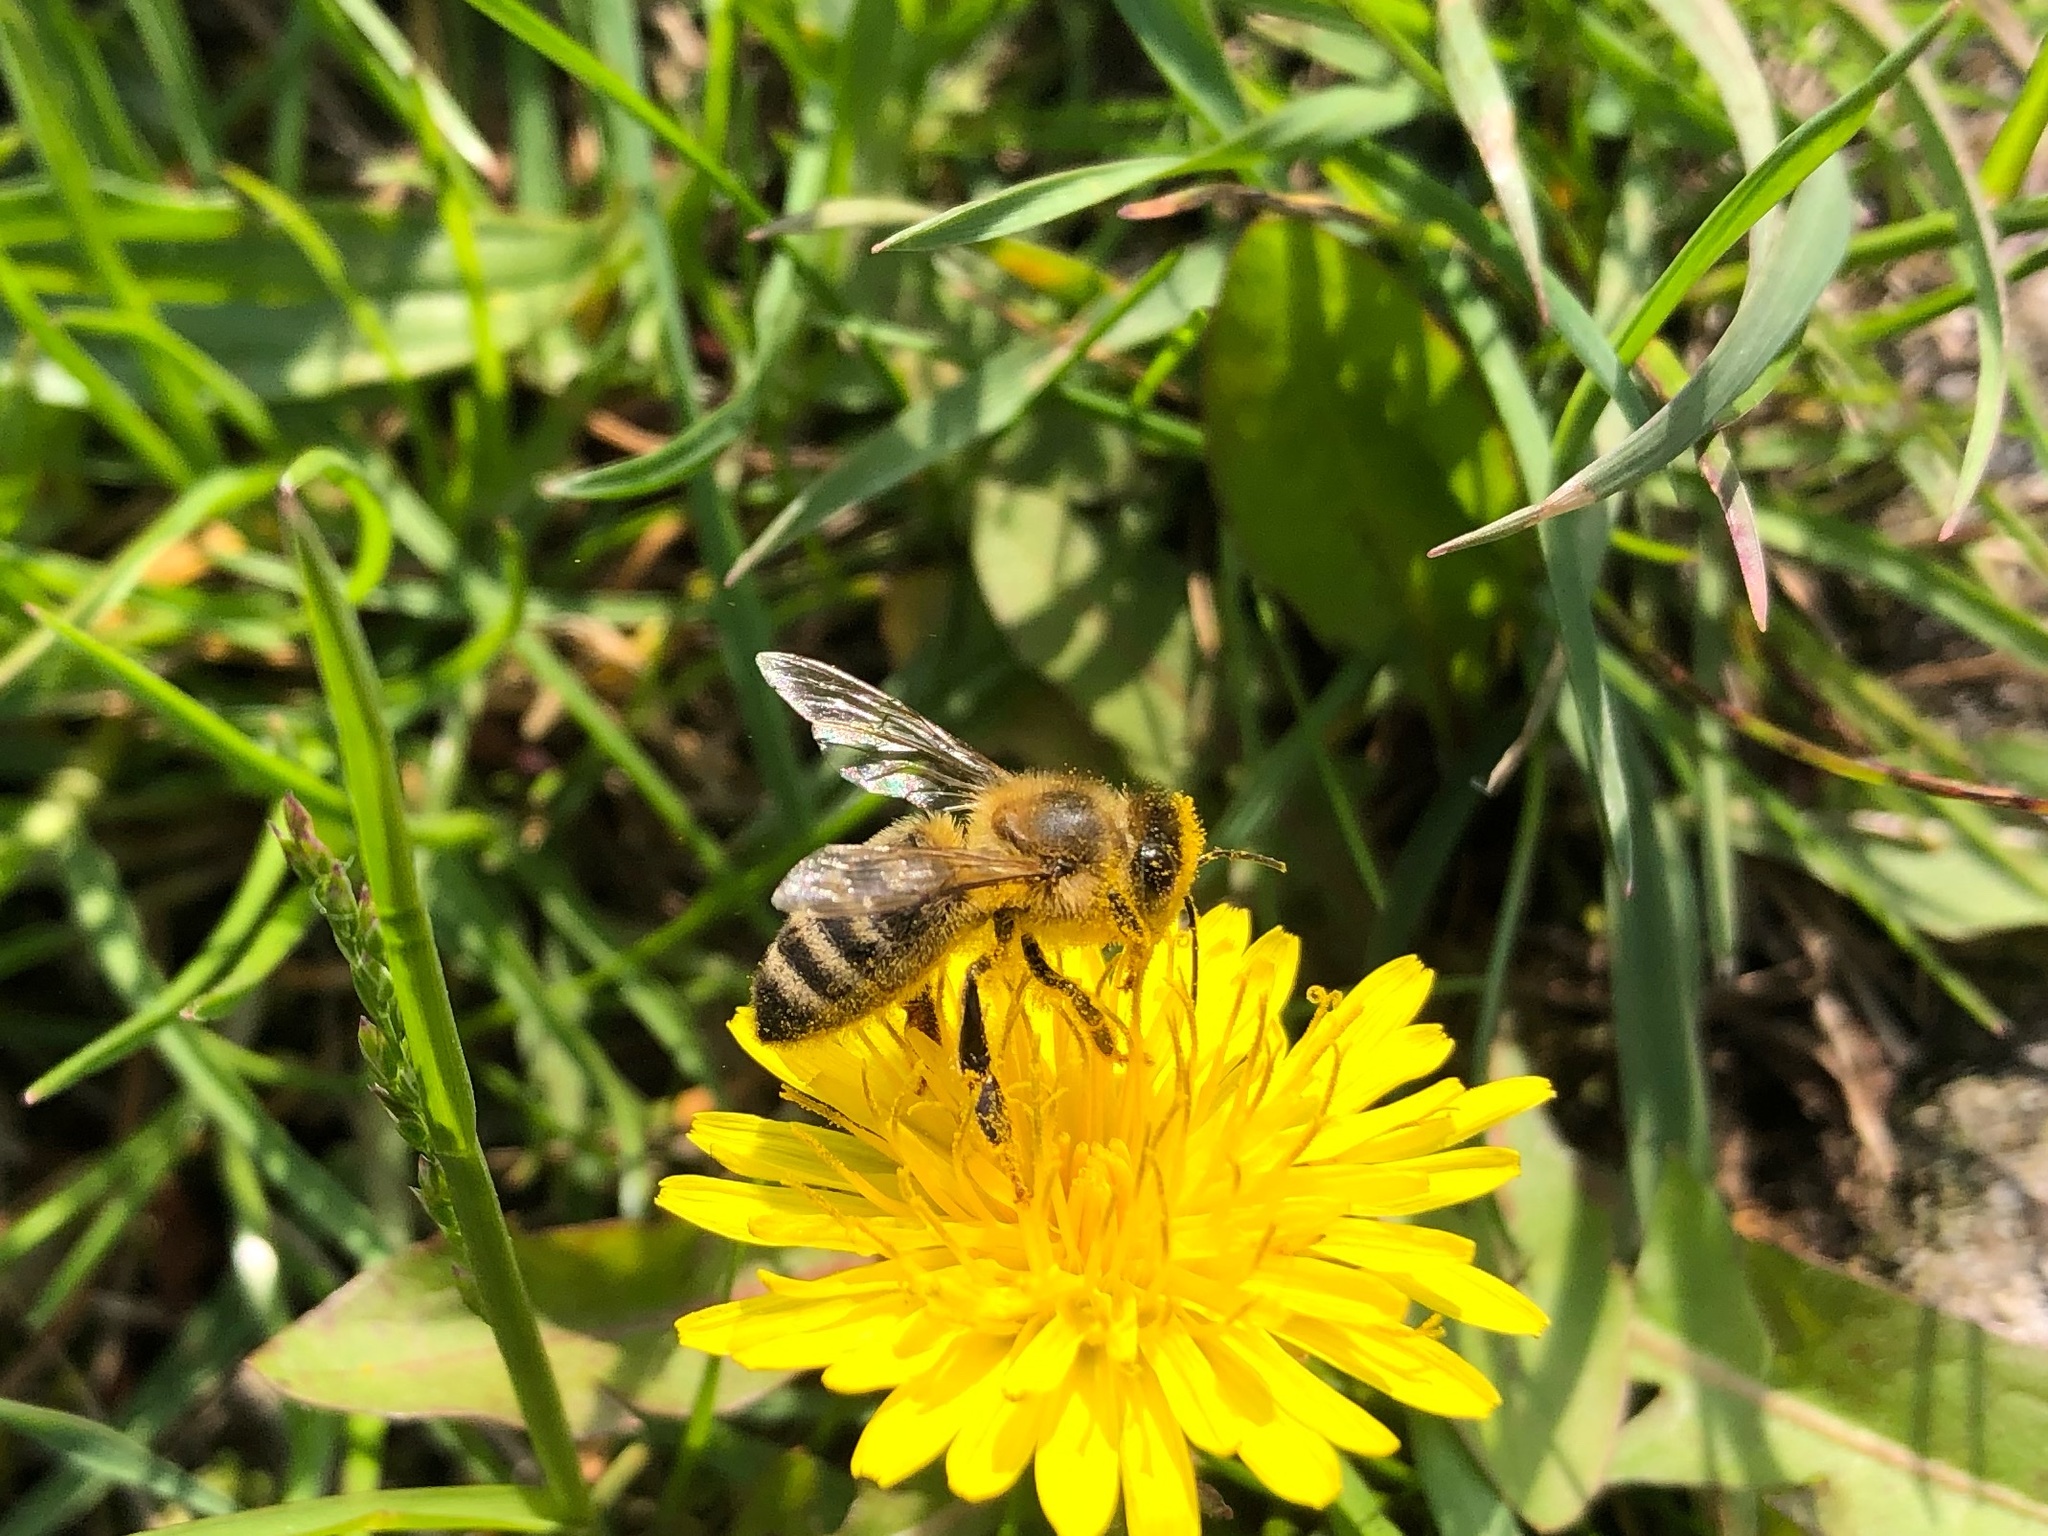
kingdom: Animalia
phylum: Arthropoda
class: Insecta
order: Hymenoptera
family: Apidae
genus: Apis
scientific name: Apis mellifera
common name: Honey bee
